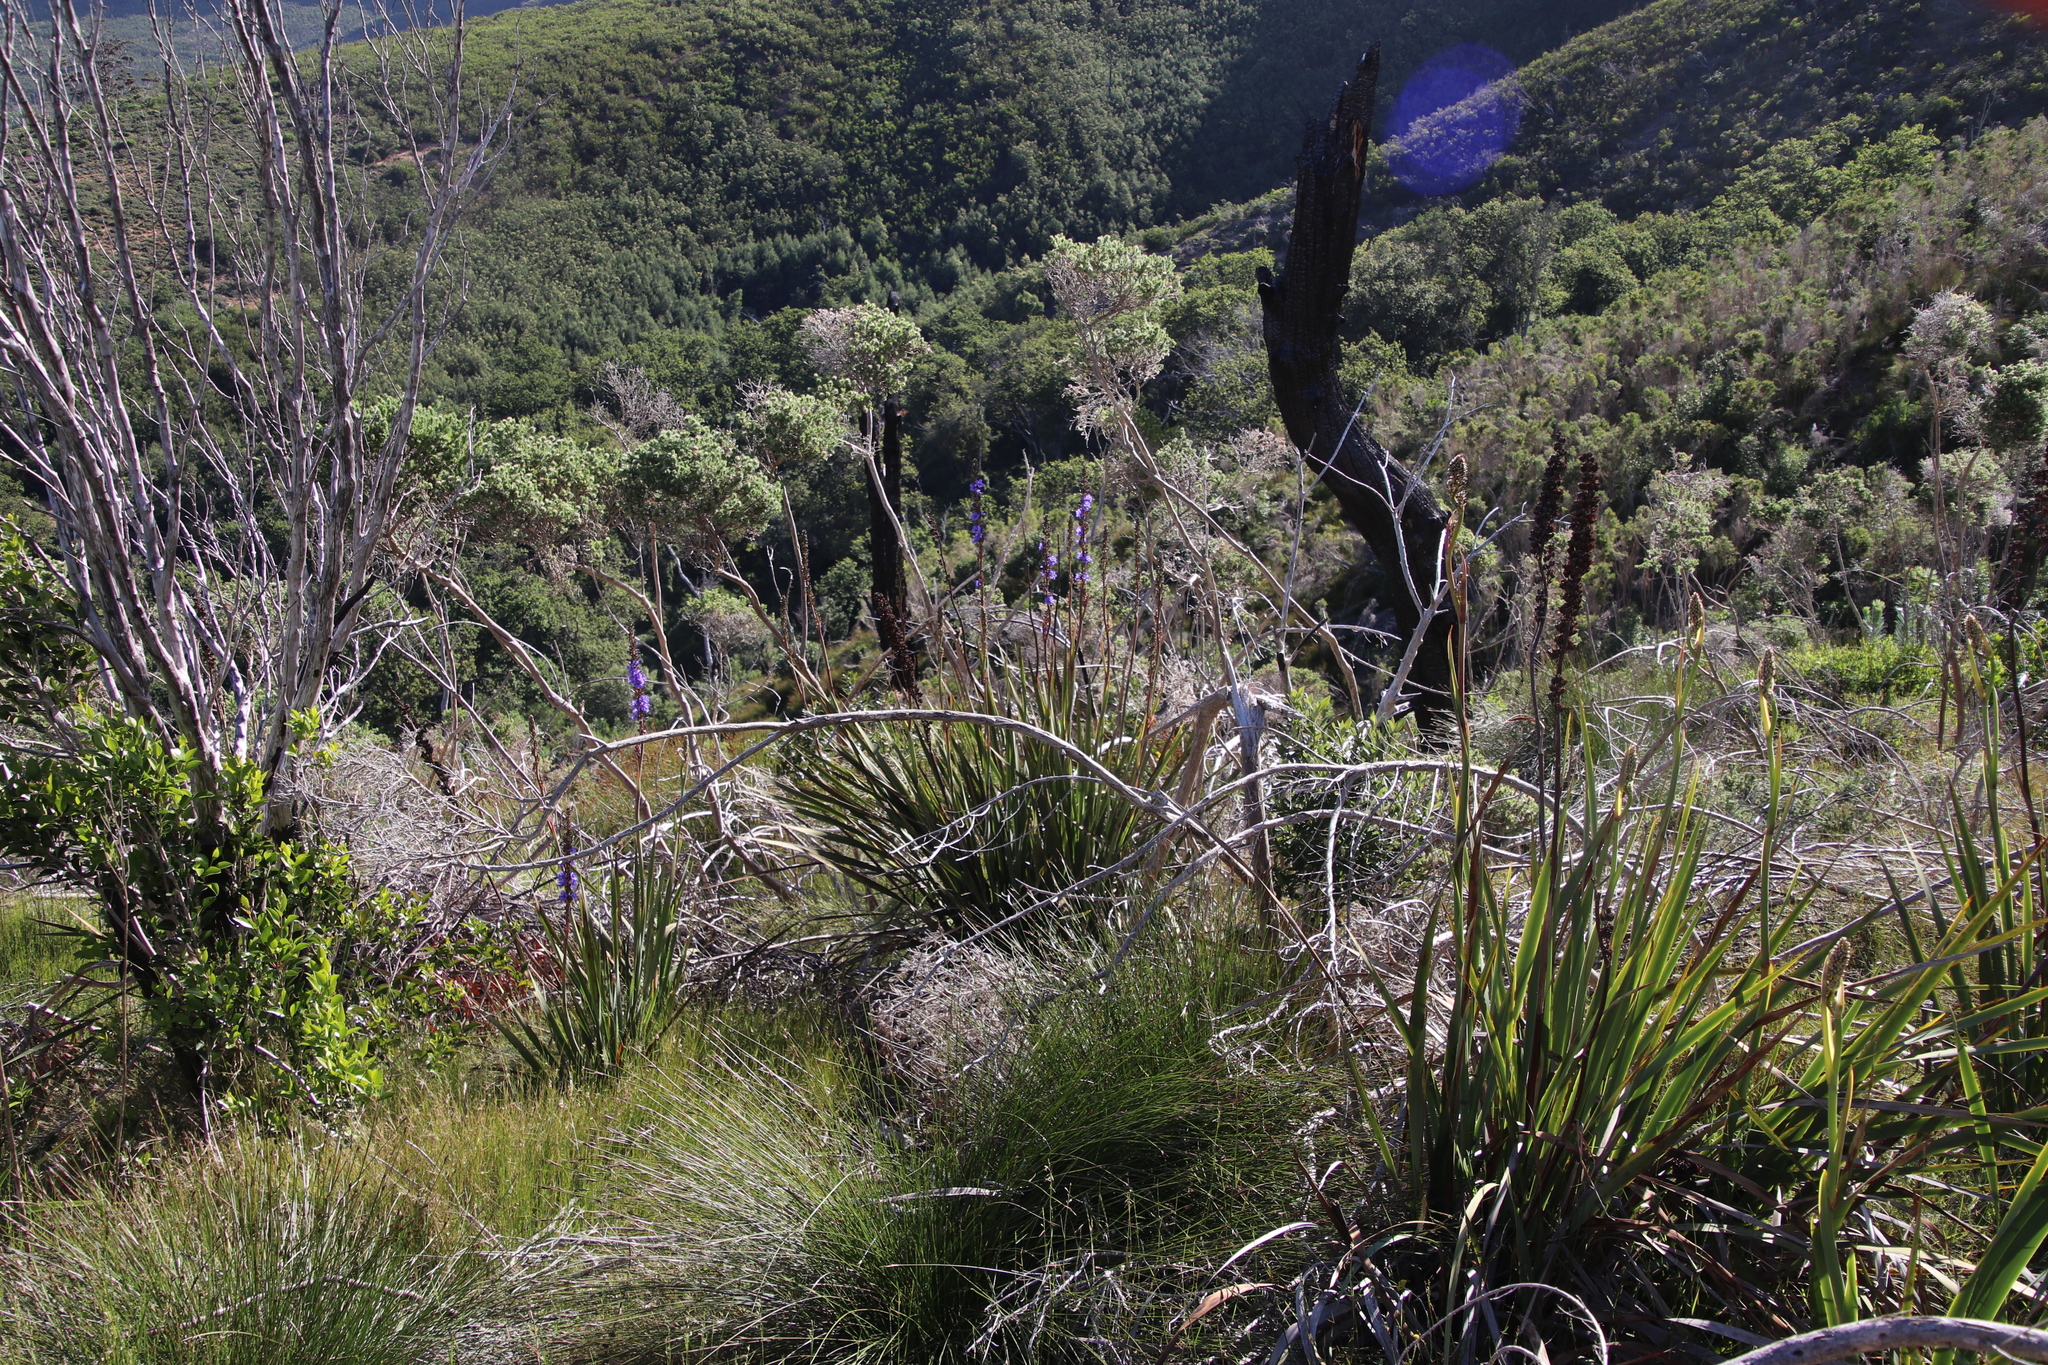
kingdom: Plantae
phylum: Tracheophyta
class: Liliopsida
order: Asparagales
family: Iridaceae
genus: Aristea
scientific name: Aristea capitata
